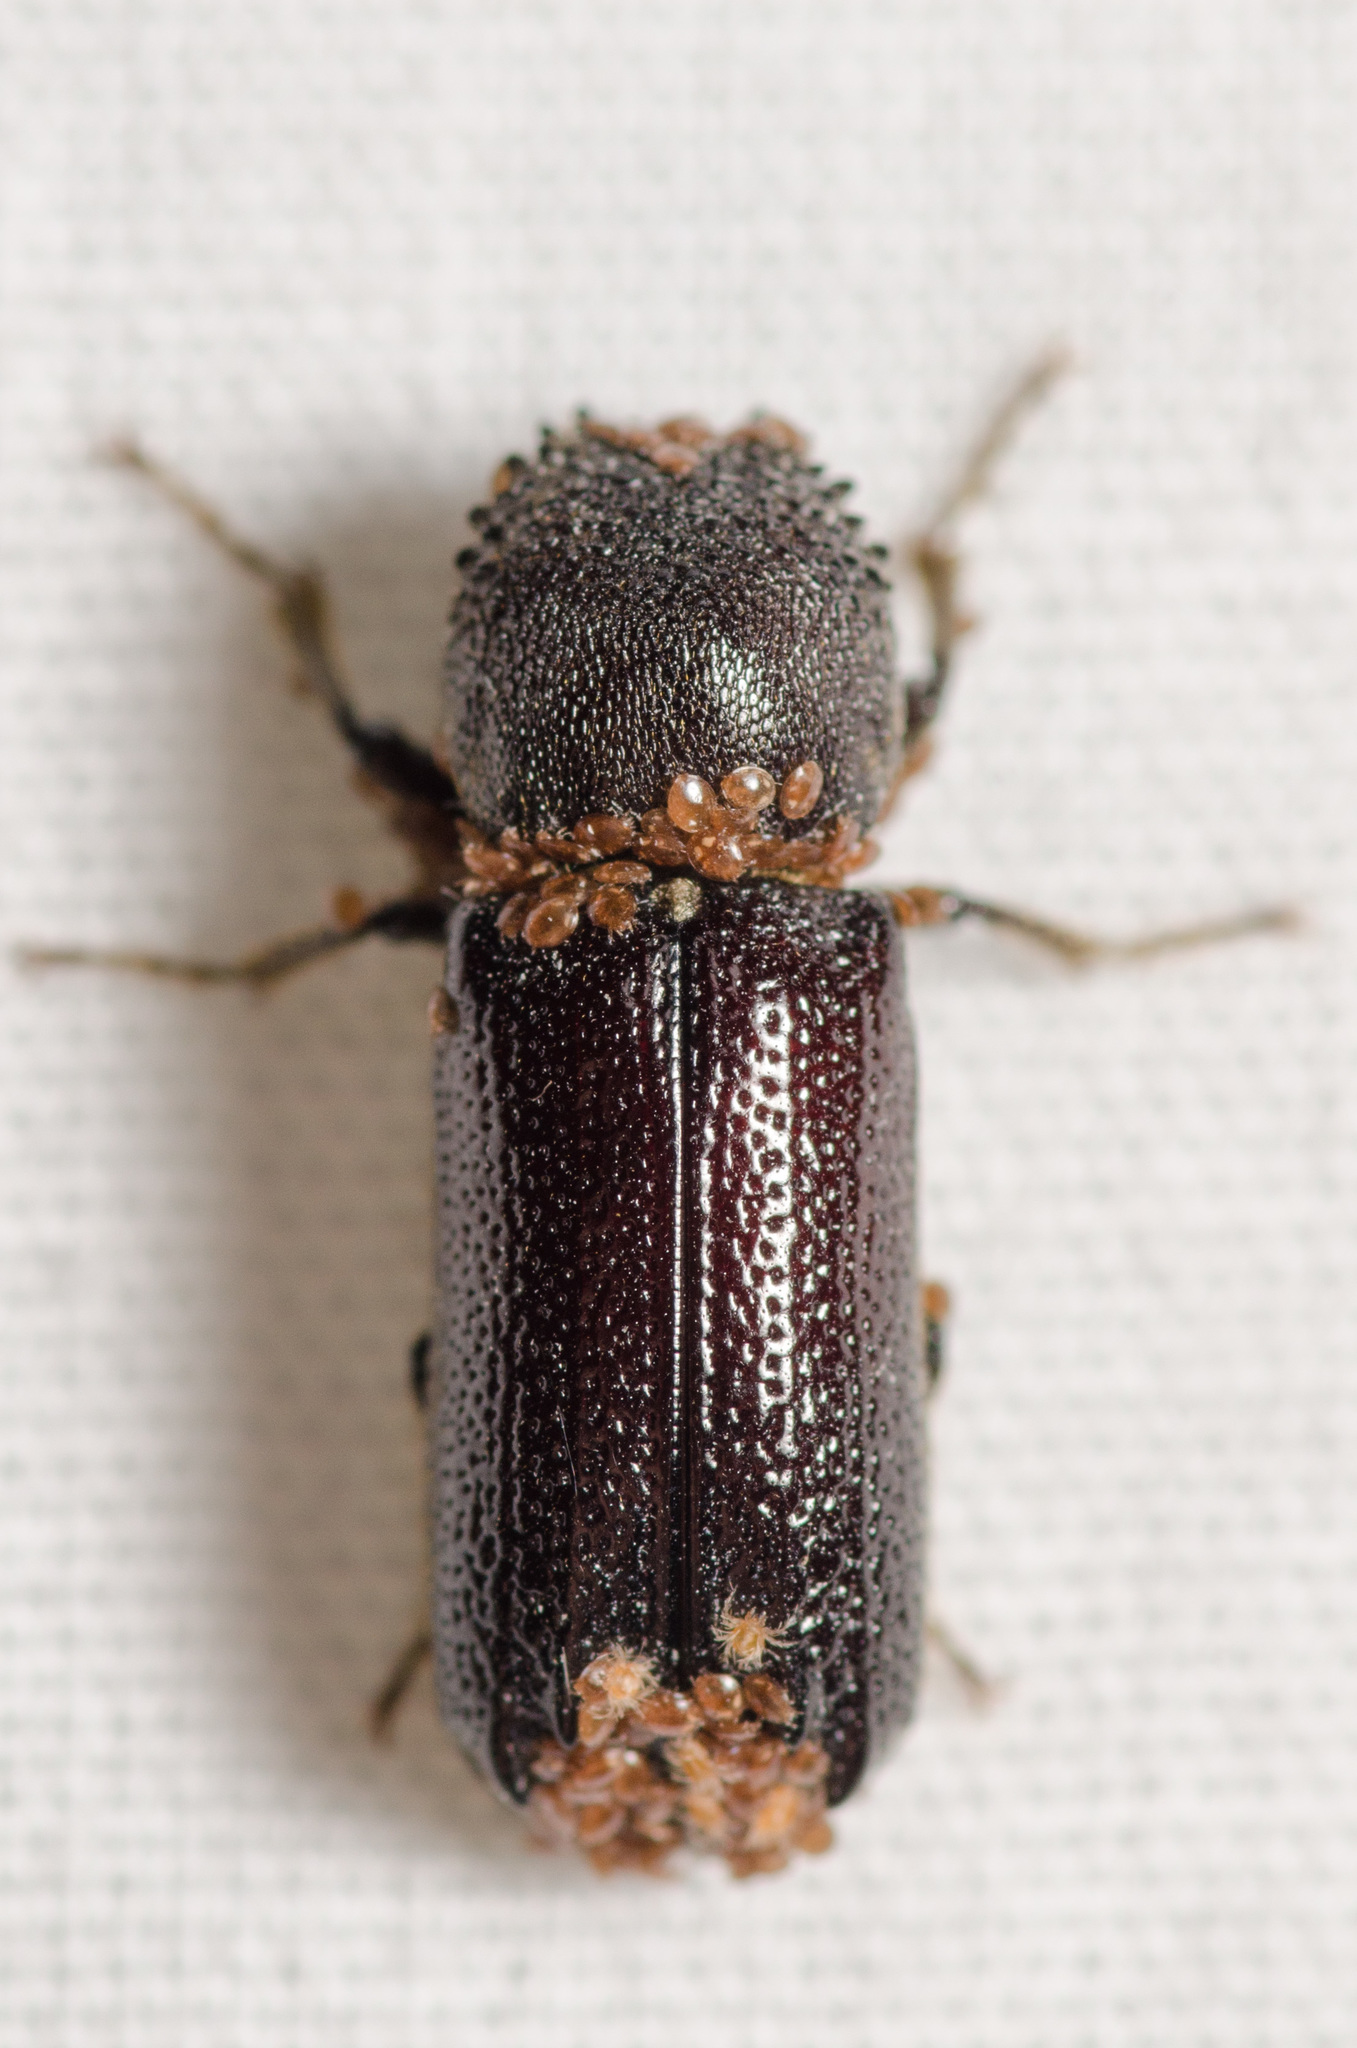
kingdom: Animalia
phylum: Arthropoda
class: Insecta
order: Coleoptera
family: Bostrichidae
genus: Amphicerus
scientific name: Amphicerus cornutus
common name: Powderpost beetle
